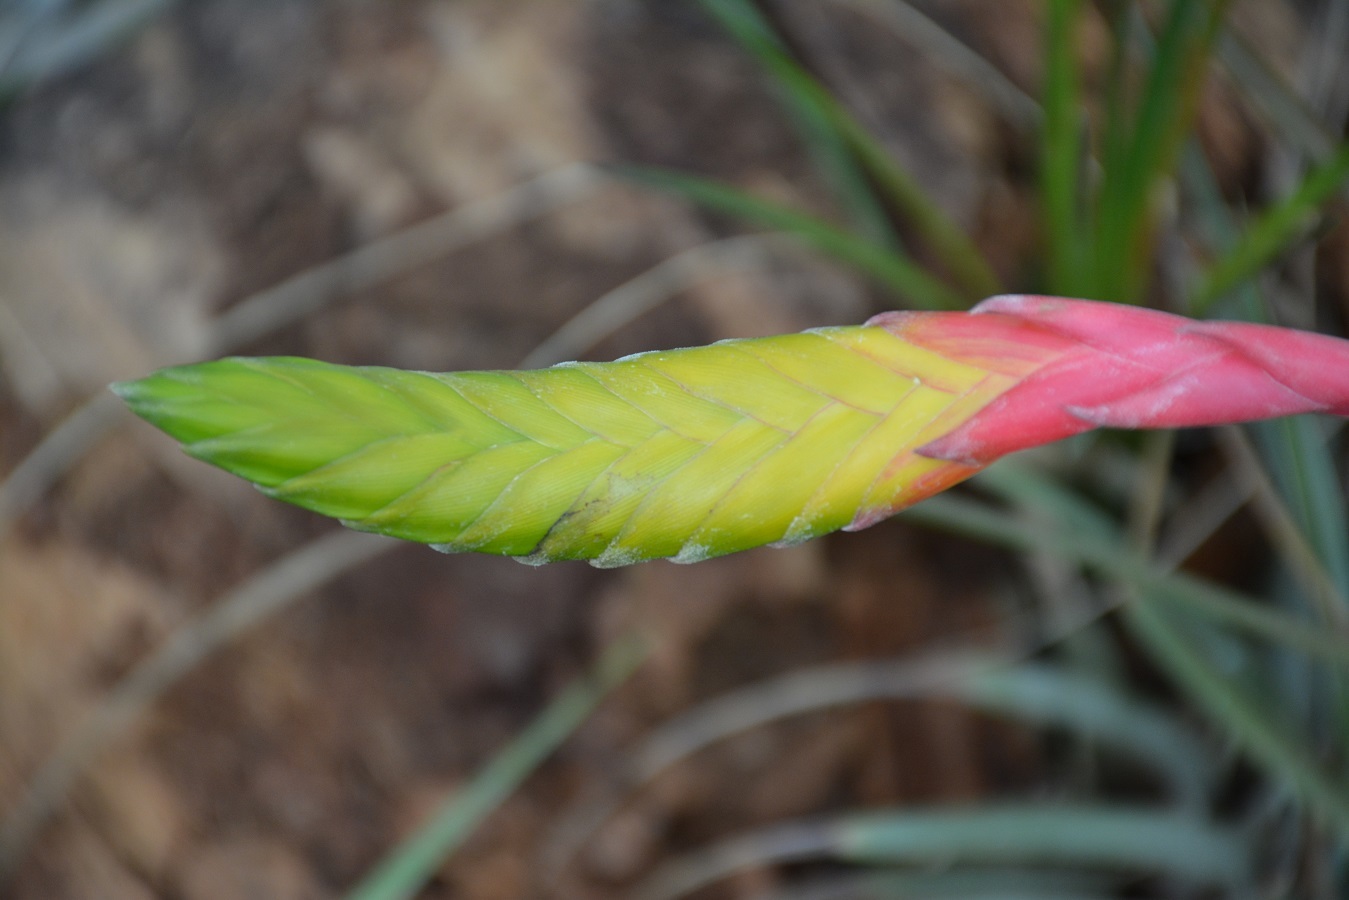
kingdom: Plantae
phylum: Tracheophyta
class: Liliopsida
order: Poales
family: Bromeliaceae
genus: Tillandsia
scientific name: Tillandsia tricolor
